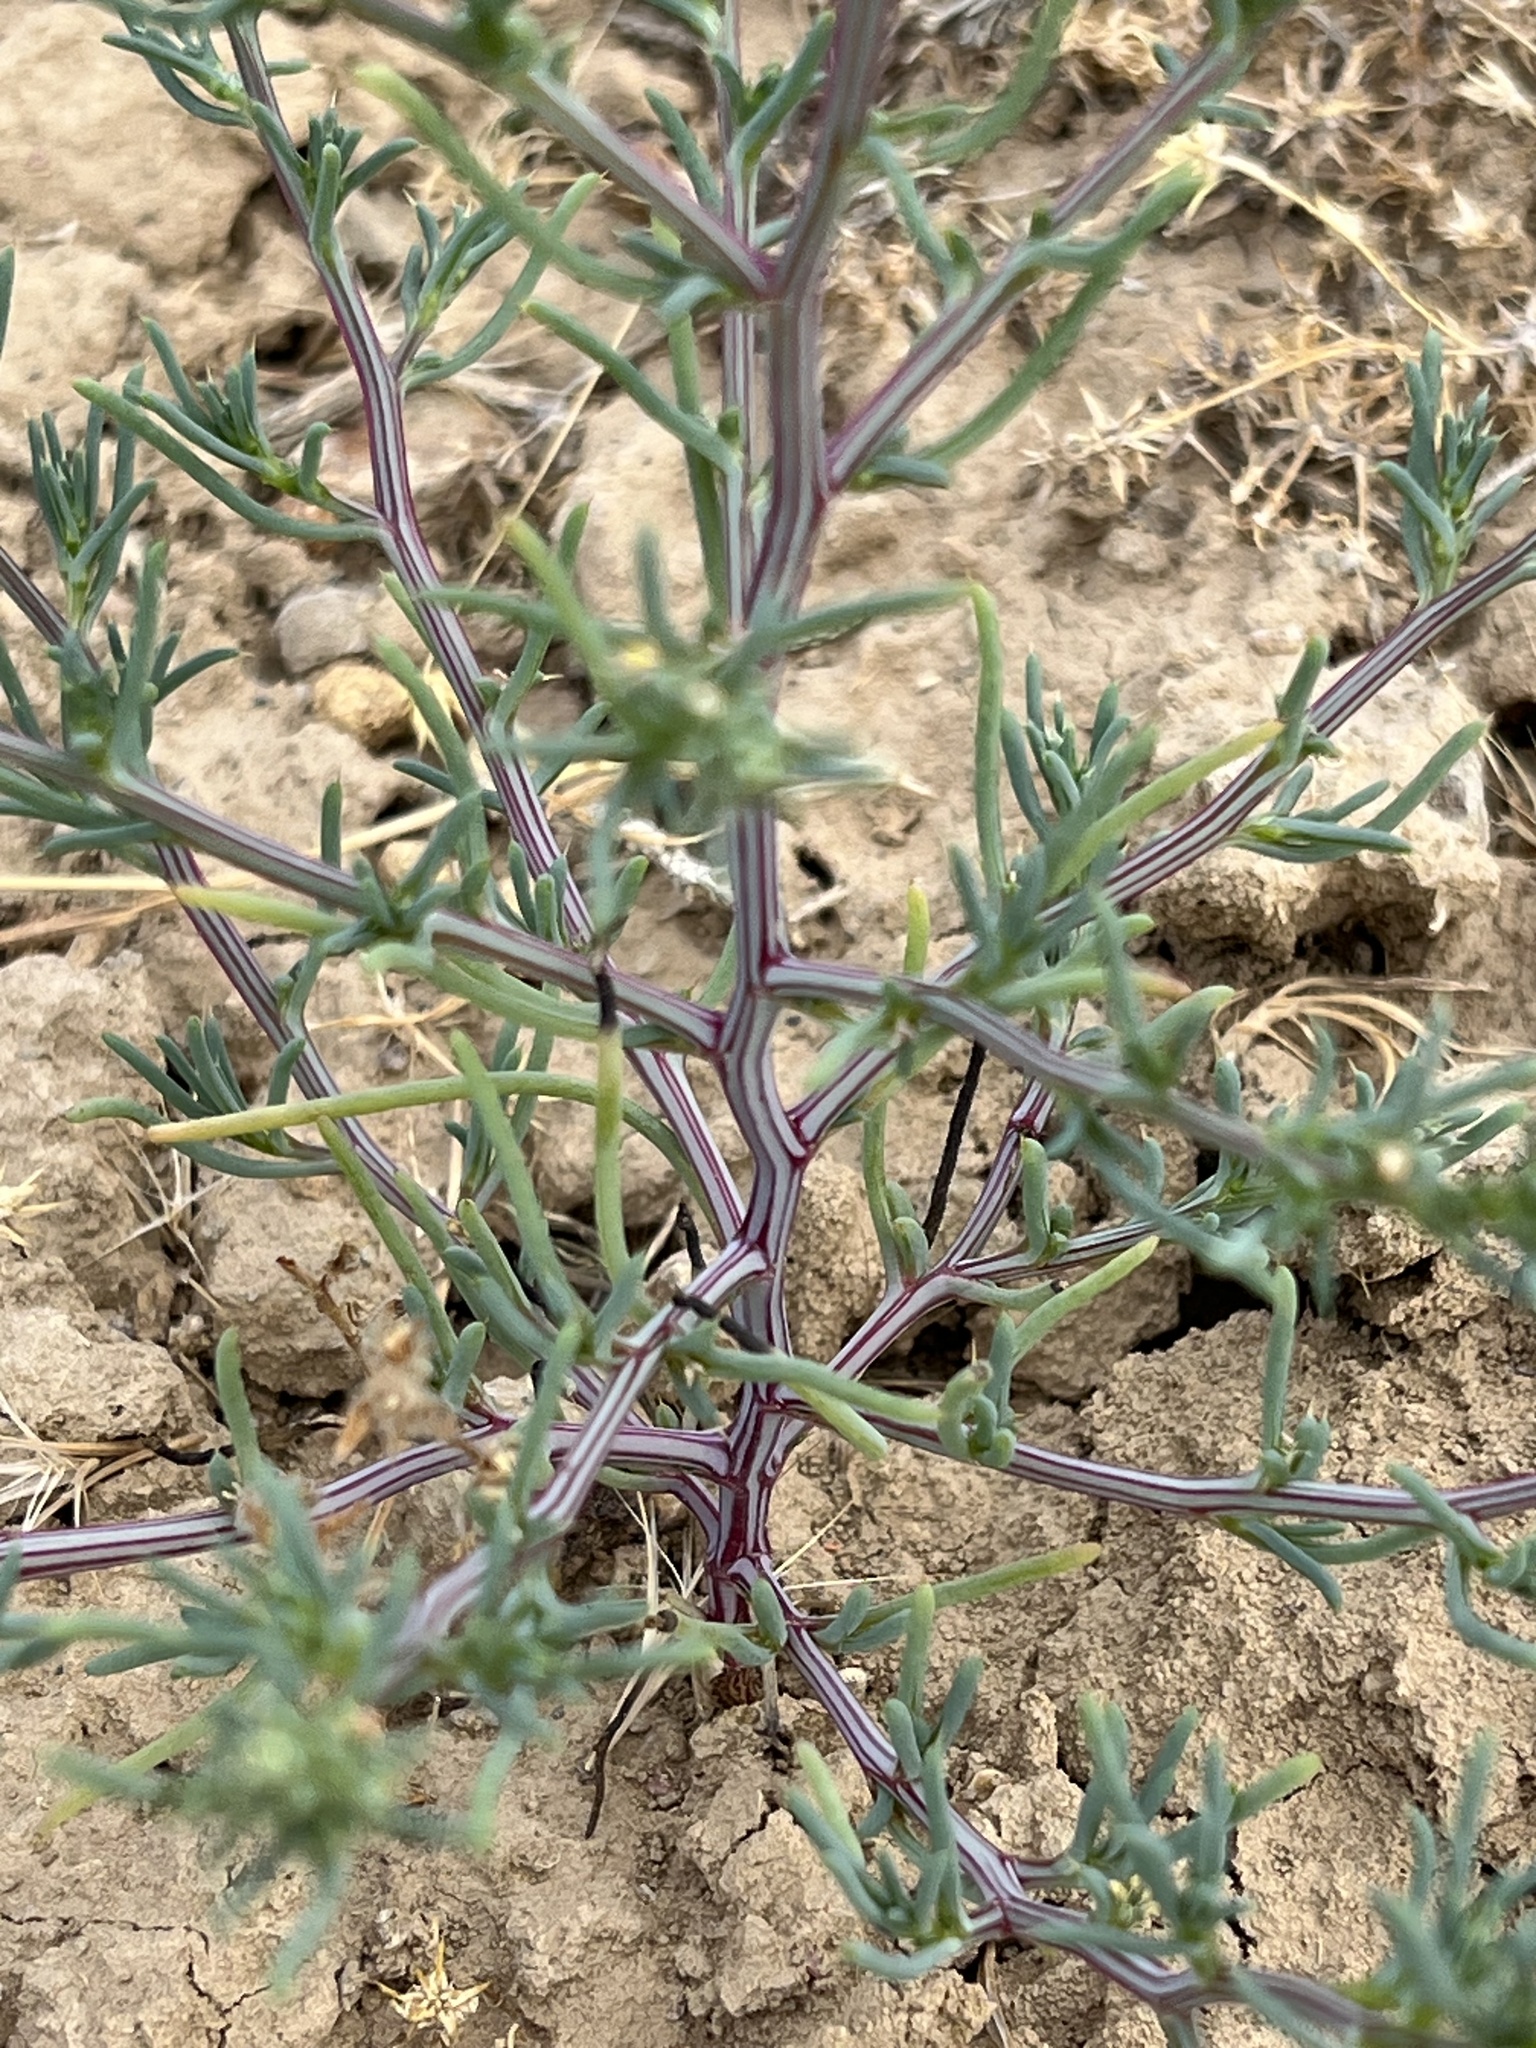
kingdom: Plantae
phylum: Tracheophyta
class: Magnoliopsida
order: Caryophyllales
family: Amaranthaceae
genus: Salsola
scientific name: Salsola tragus
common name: Prickly russian thistle
